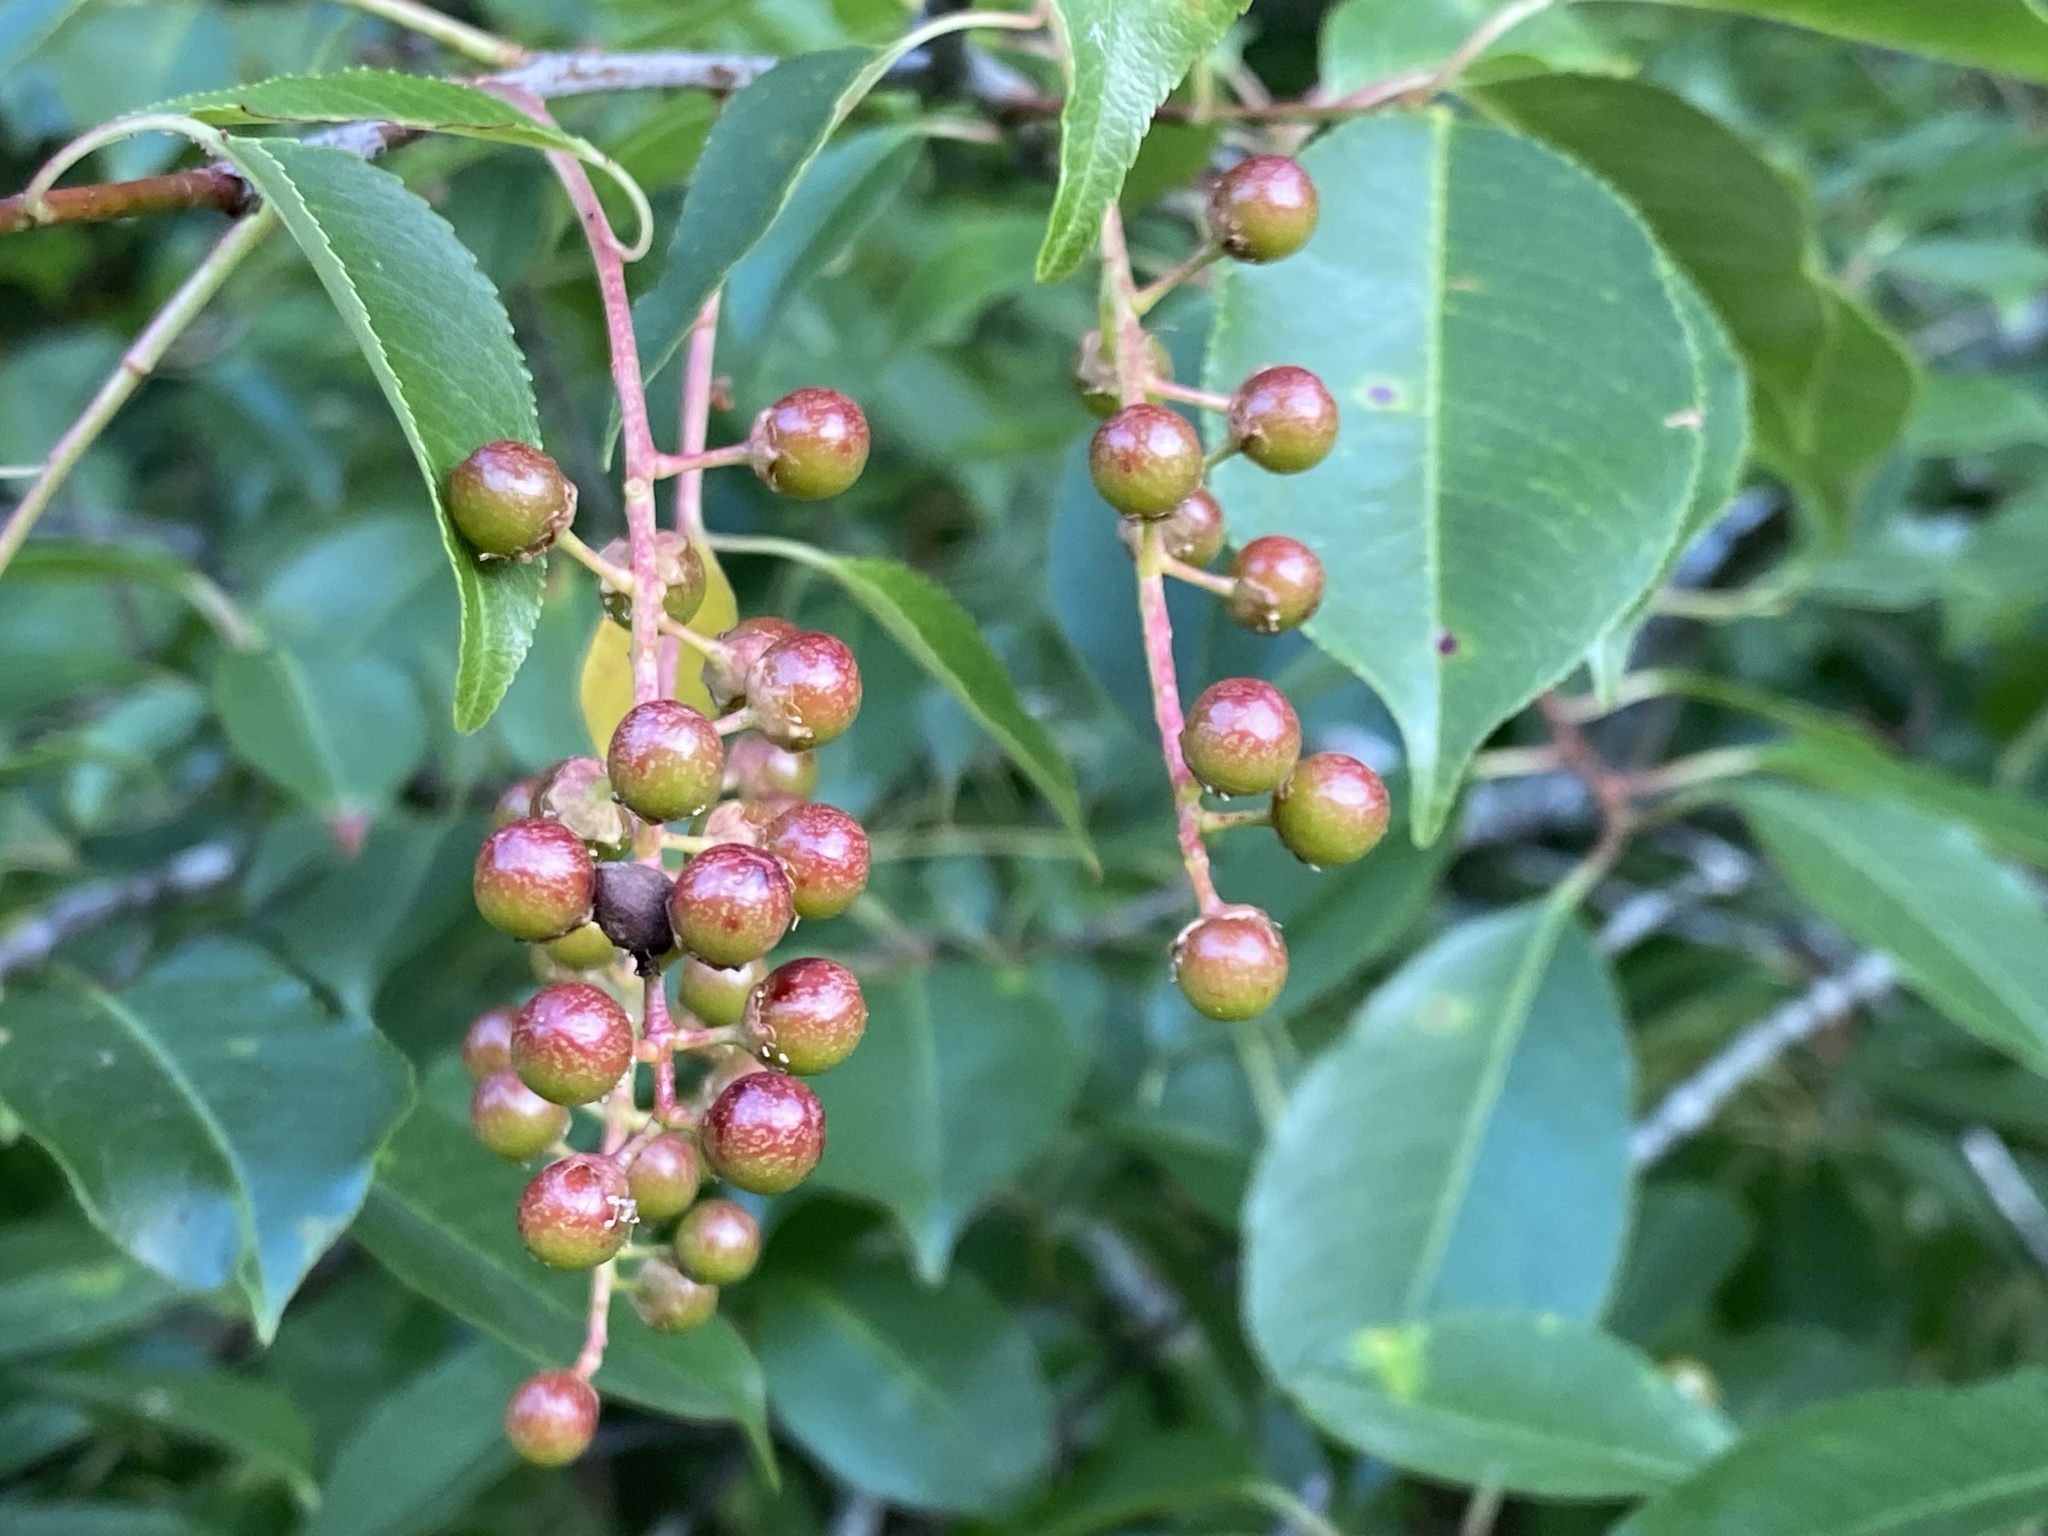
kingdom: Plantae
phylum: Tracheophyta
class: Magnoliopsida
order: Rosales
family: Rosaceae
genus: Prunus
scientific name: Prunus serotina
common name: Black cherry
